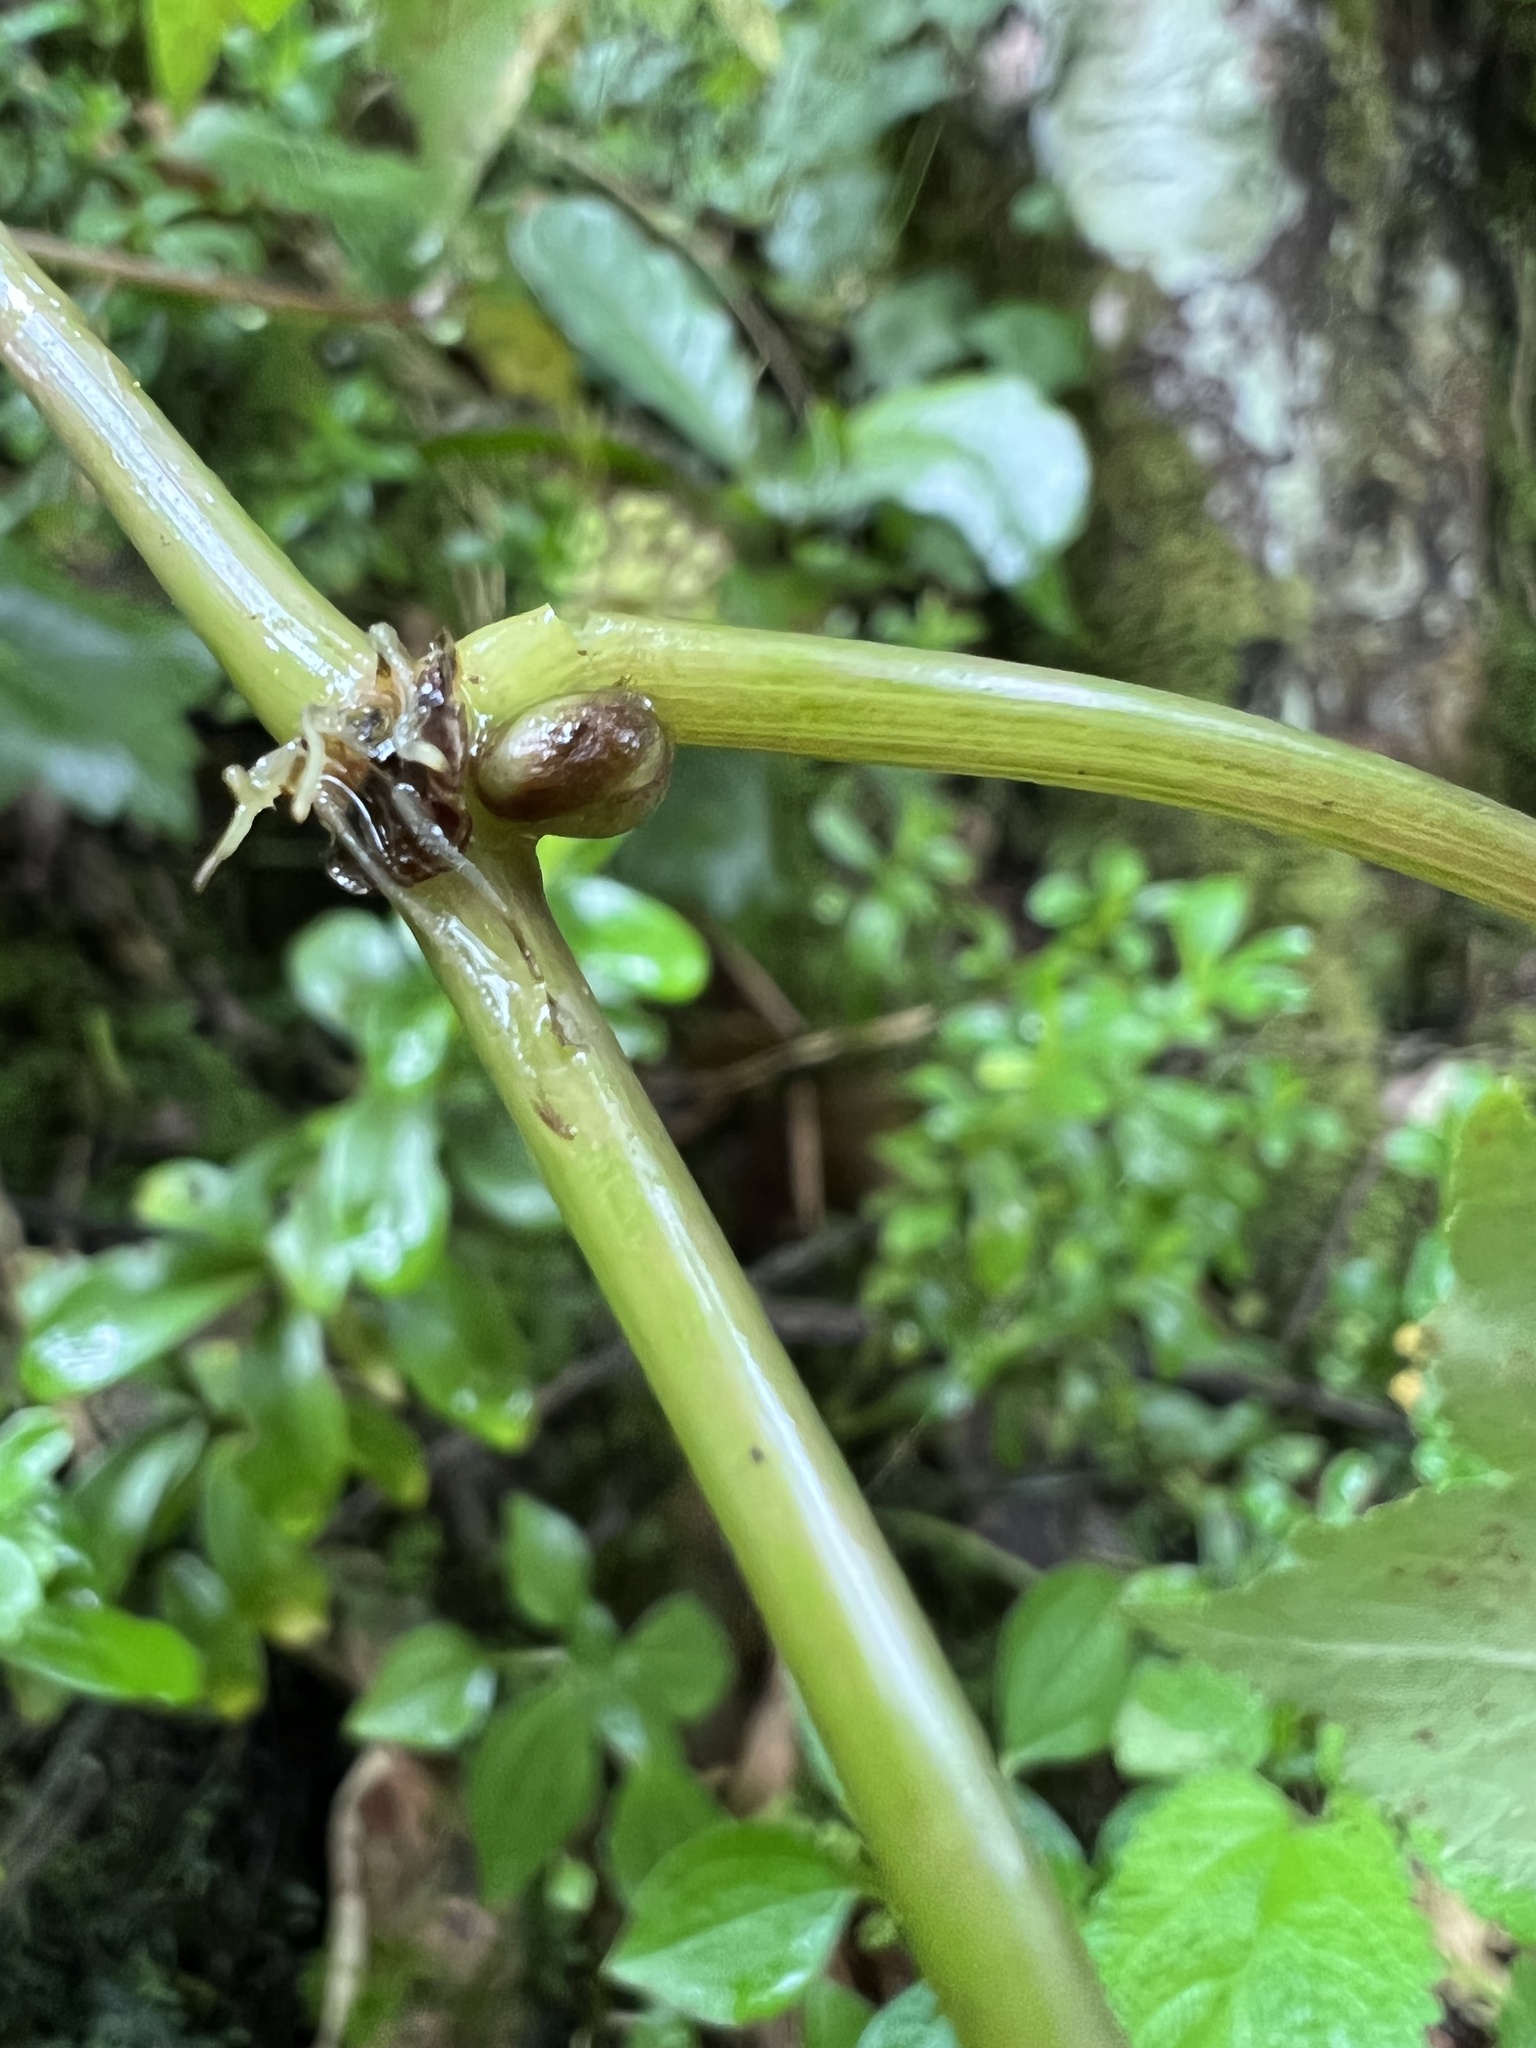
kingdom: Plantae
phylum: Tracheophyta
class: Magnoliopsida
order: Apiales
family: Araliaceae
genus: Hydrocotyle
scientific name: Hydrocotyle aconitifolia
